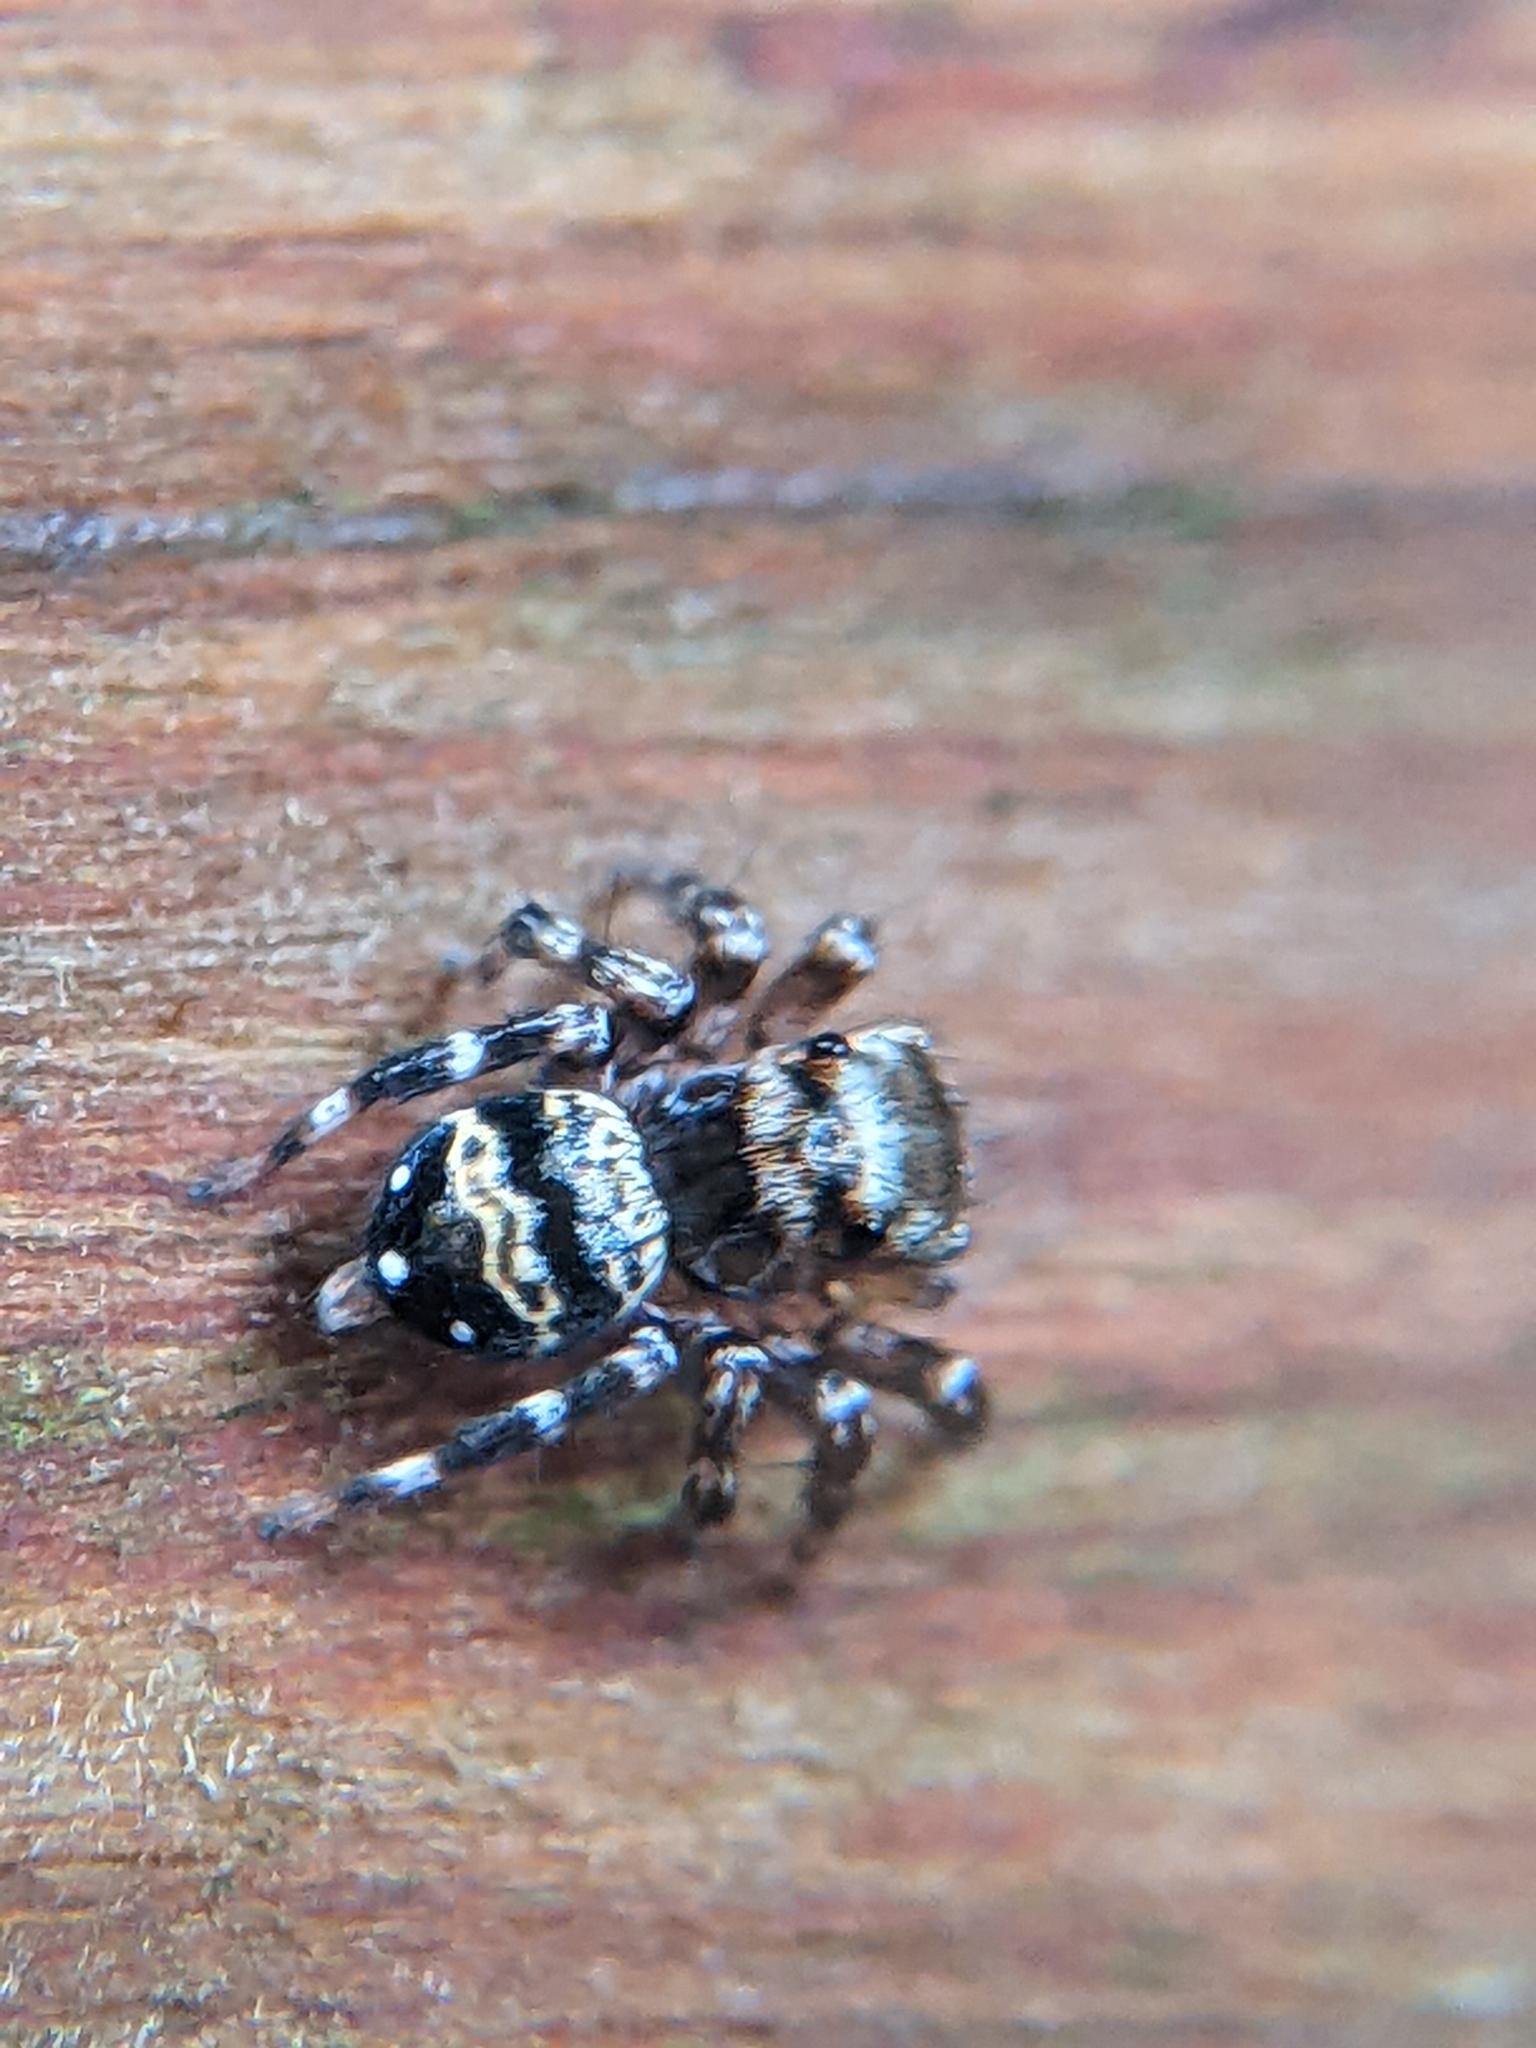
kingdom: Animalia
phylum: Arthropoda
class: Arachnida
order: Araneae
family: Salticidae
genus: Thorelliola
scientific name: Thorelliola ensifera
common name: Jumping spider
